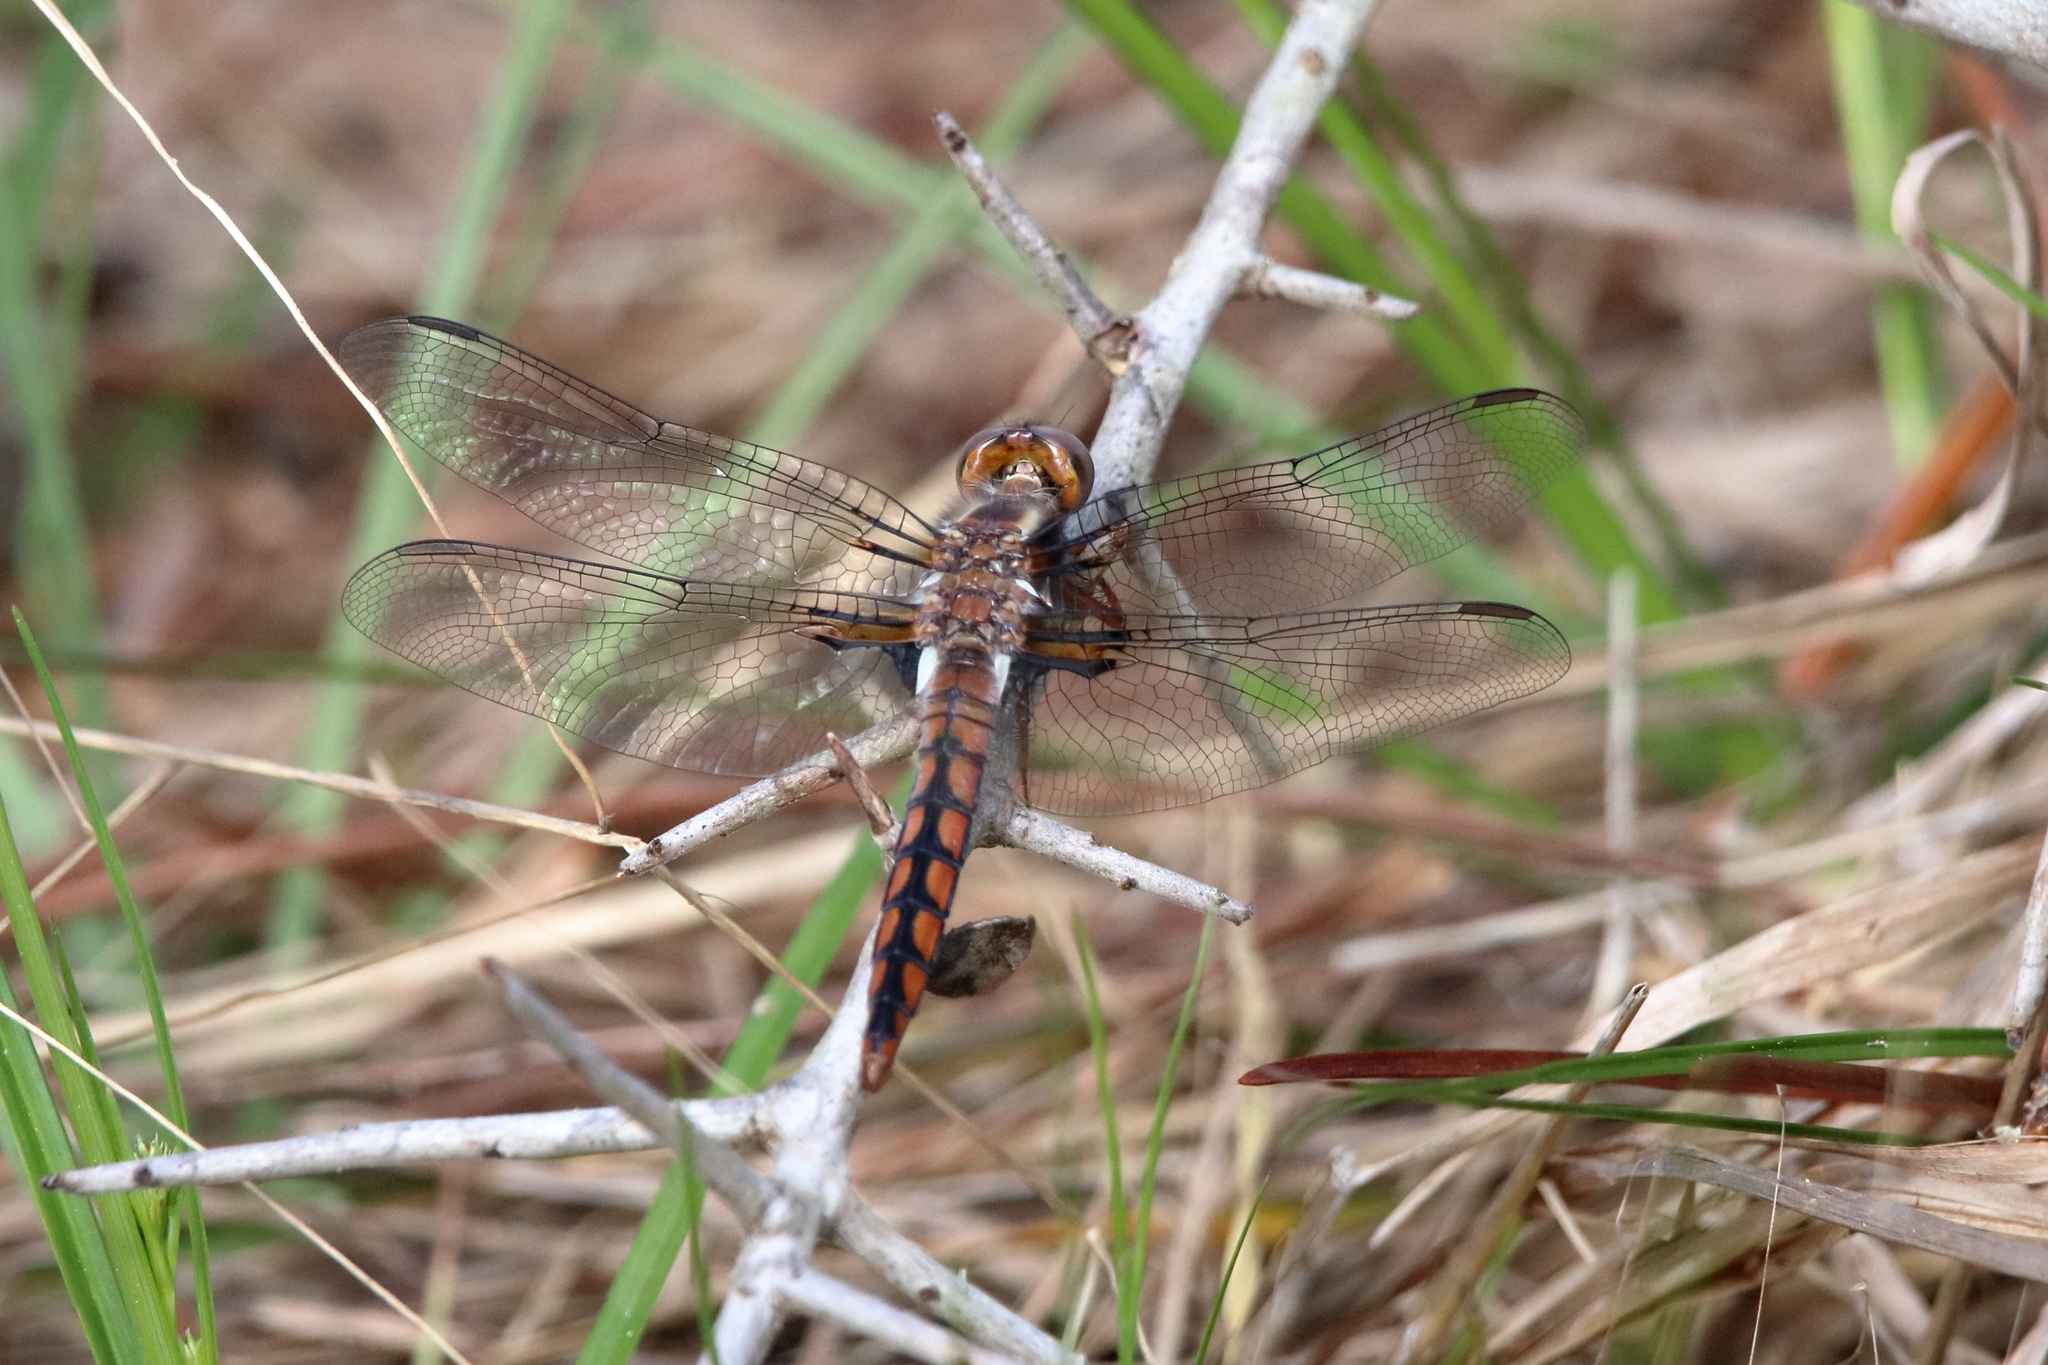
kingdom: Animalia
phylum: Arthropoda
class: Insecta
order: Odonata
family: Libellulidae
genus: Ladona
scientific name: Ladona deplanata
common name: Blue corporal
